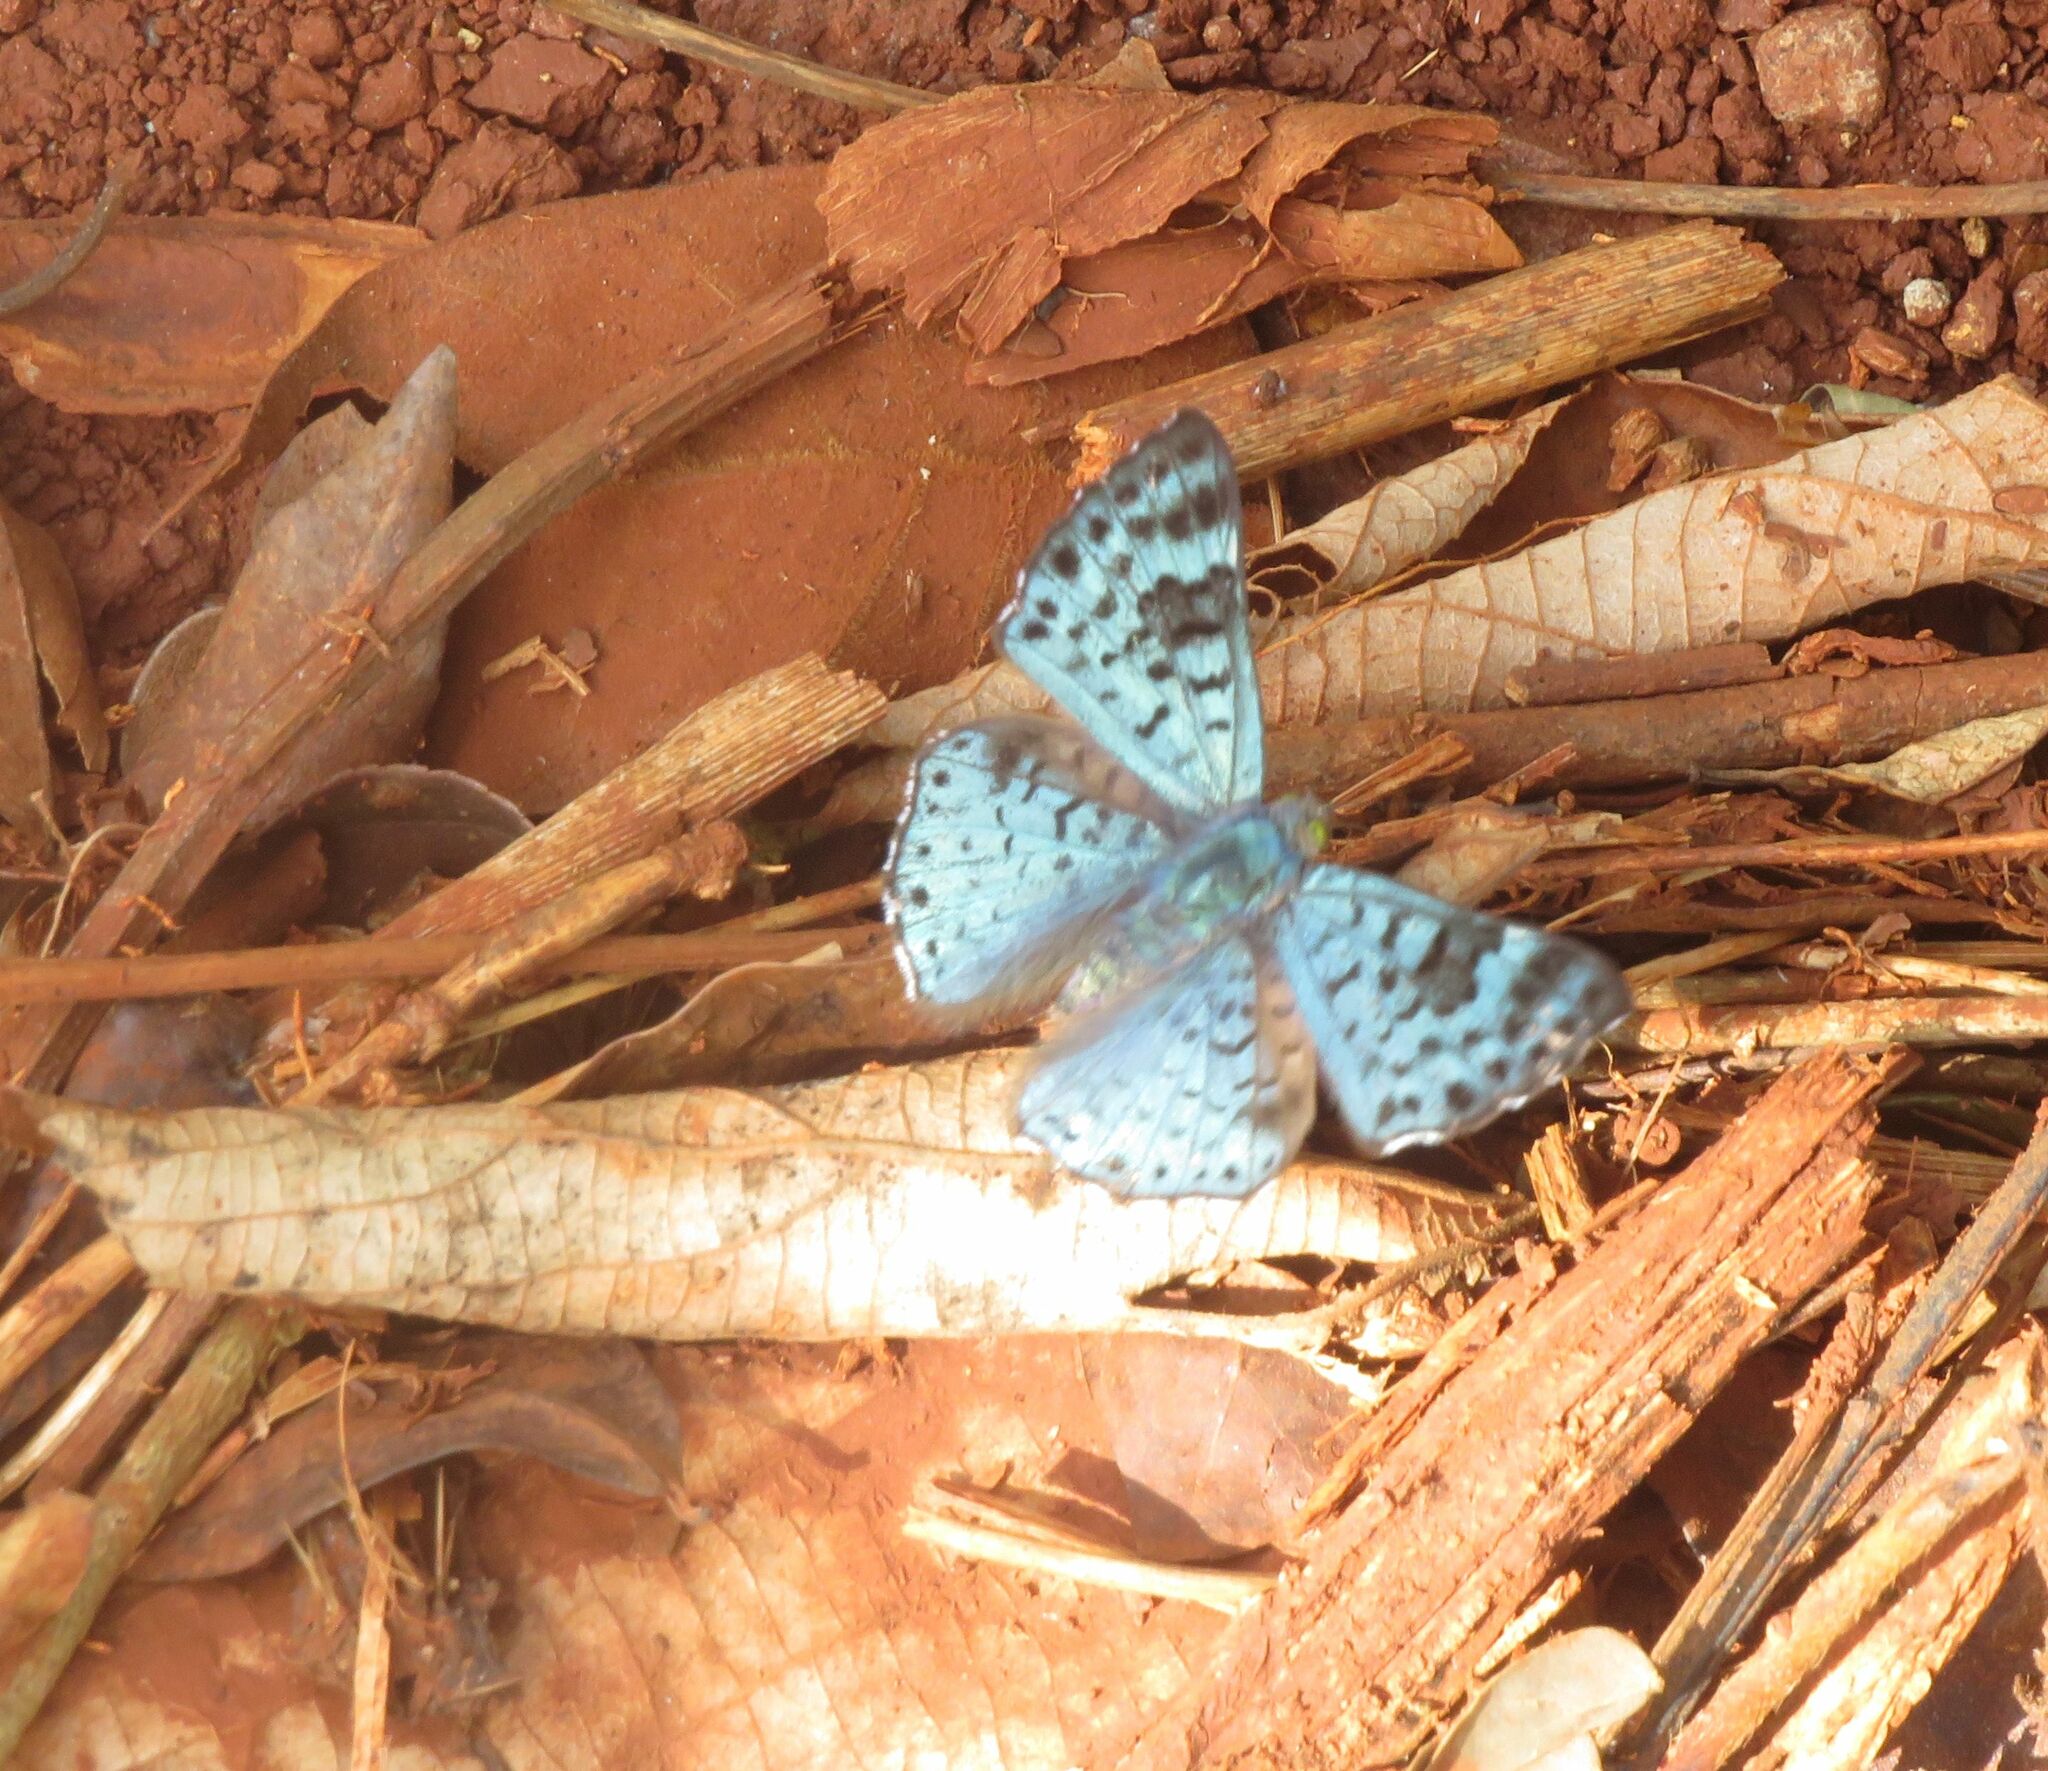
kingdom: Animalia
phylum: Arthropoda
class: Insecta
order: Lepidoptera
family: Riodinidae
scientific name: Riodinidae
